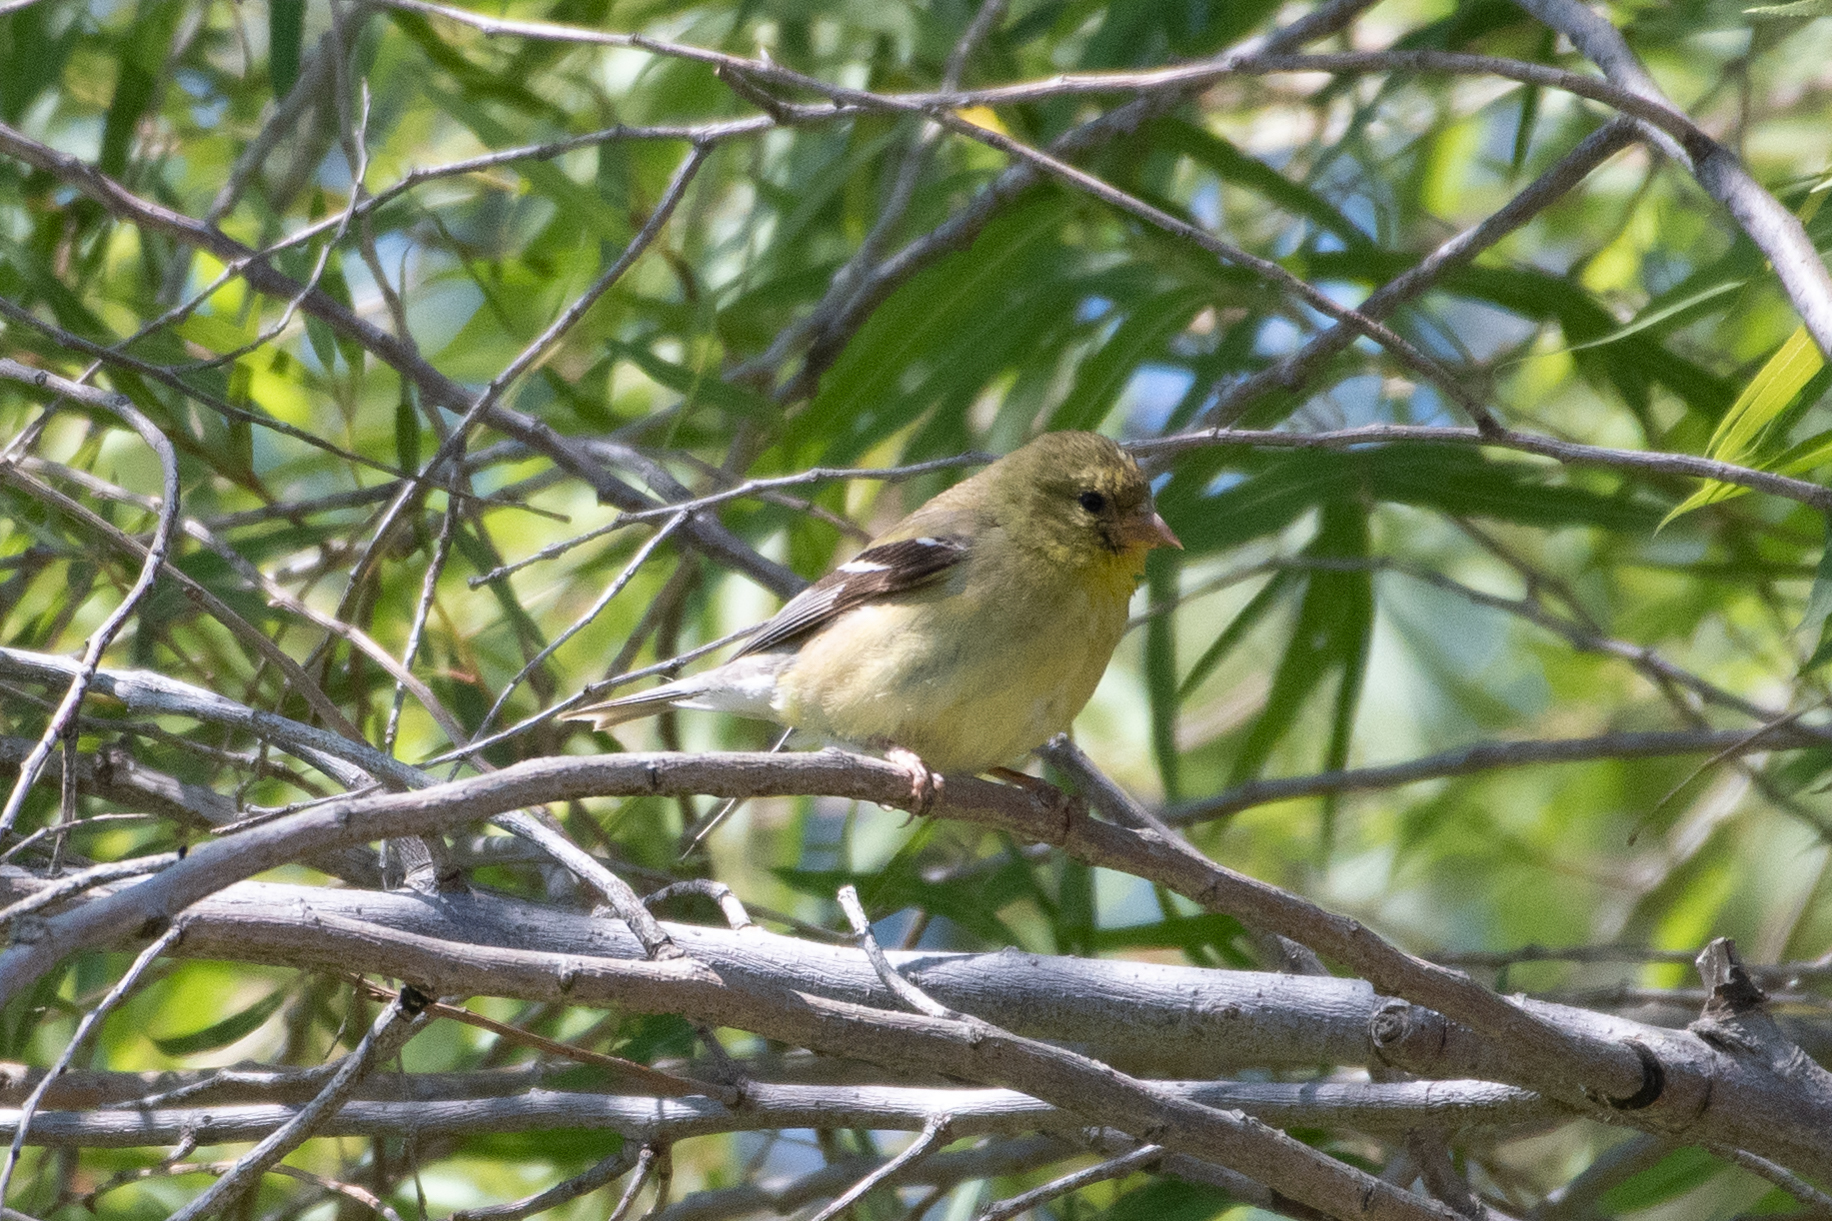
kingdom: Animalia
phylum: Chordata
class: Aves
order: Passeriformes
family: Fringillidae
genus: Spinus
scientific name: Spinus psaltria
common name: Lesser goldfinch
